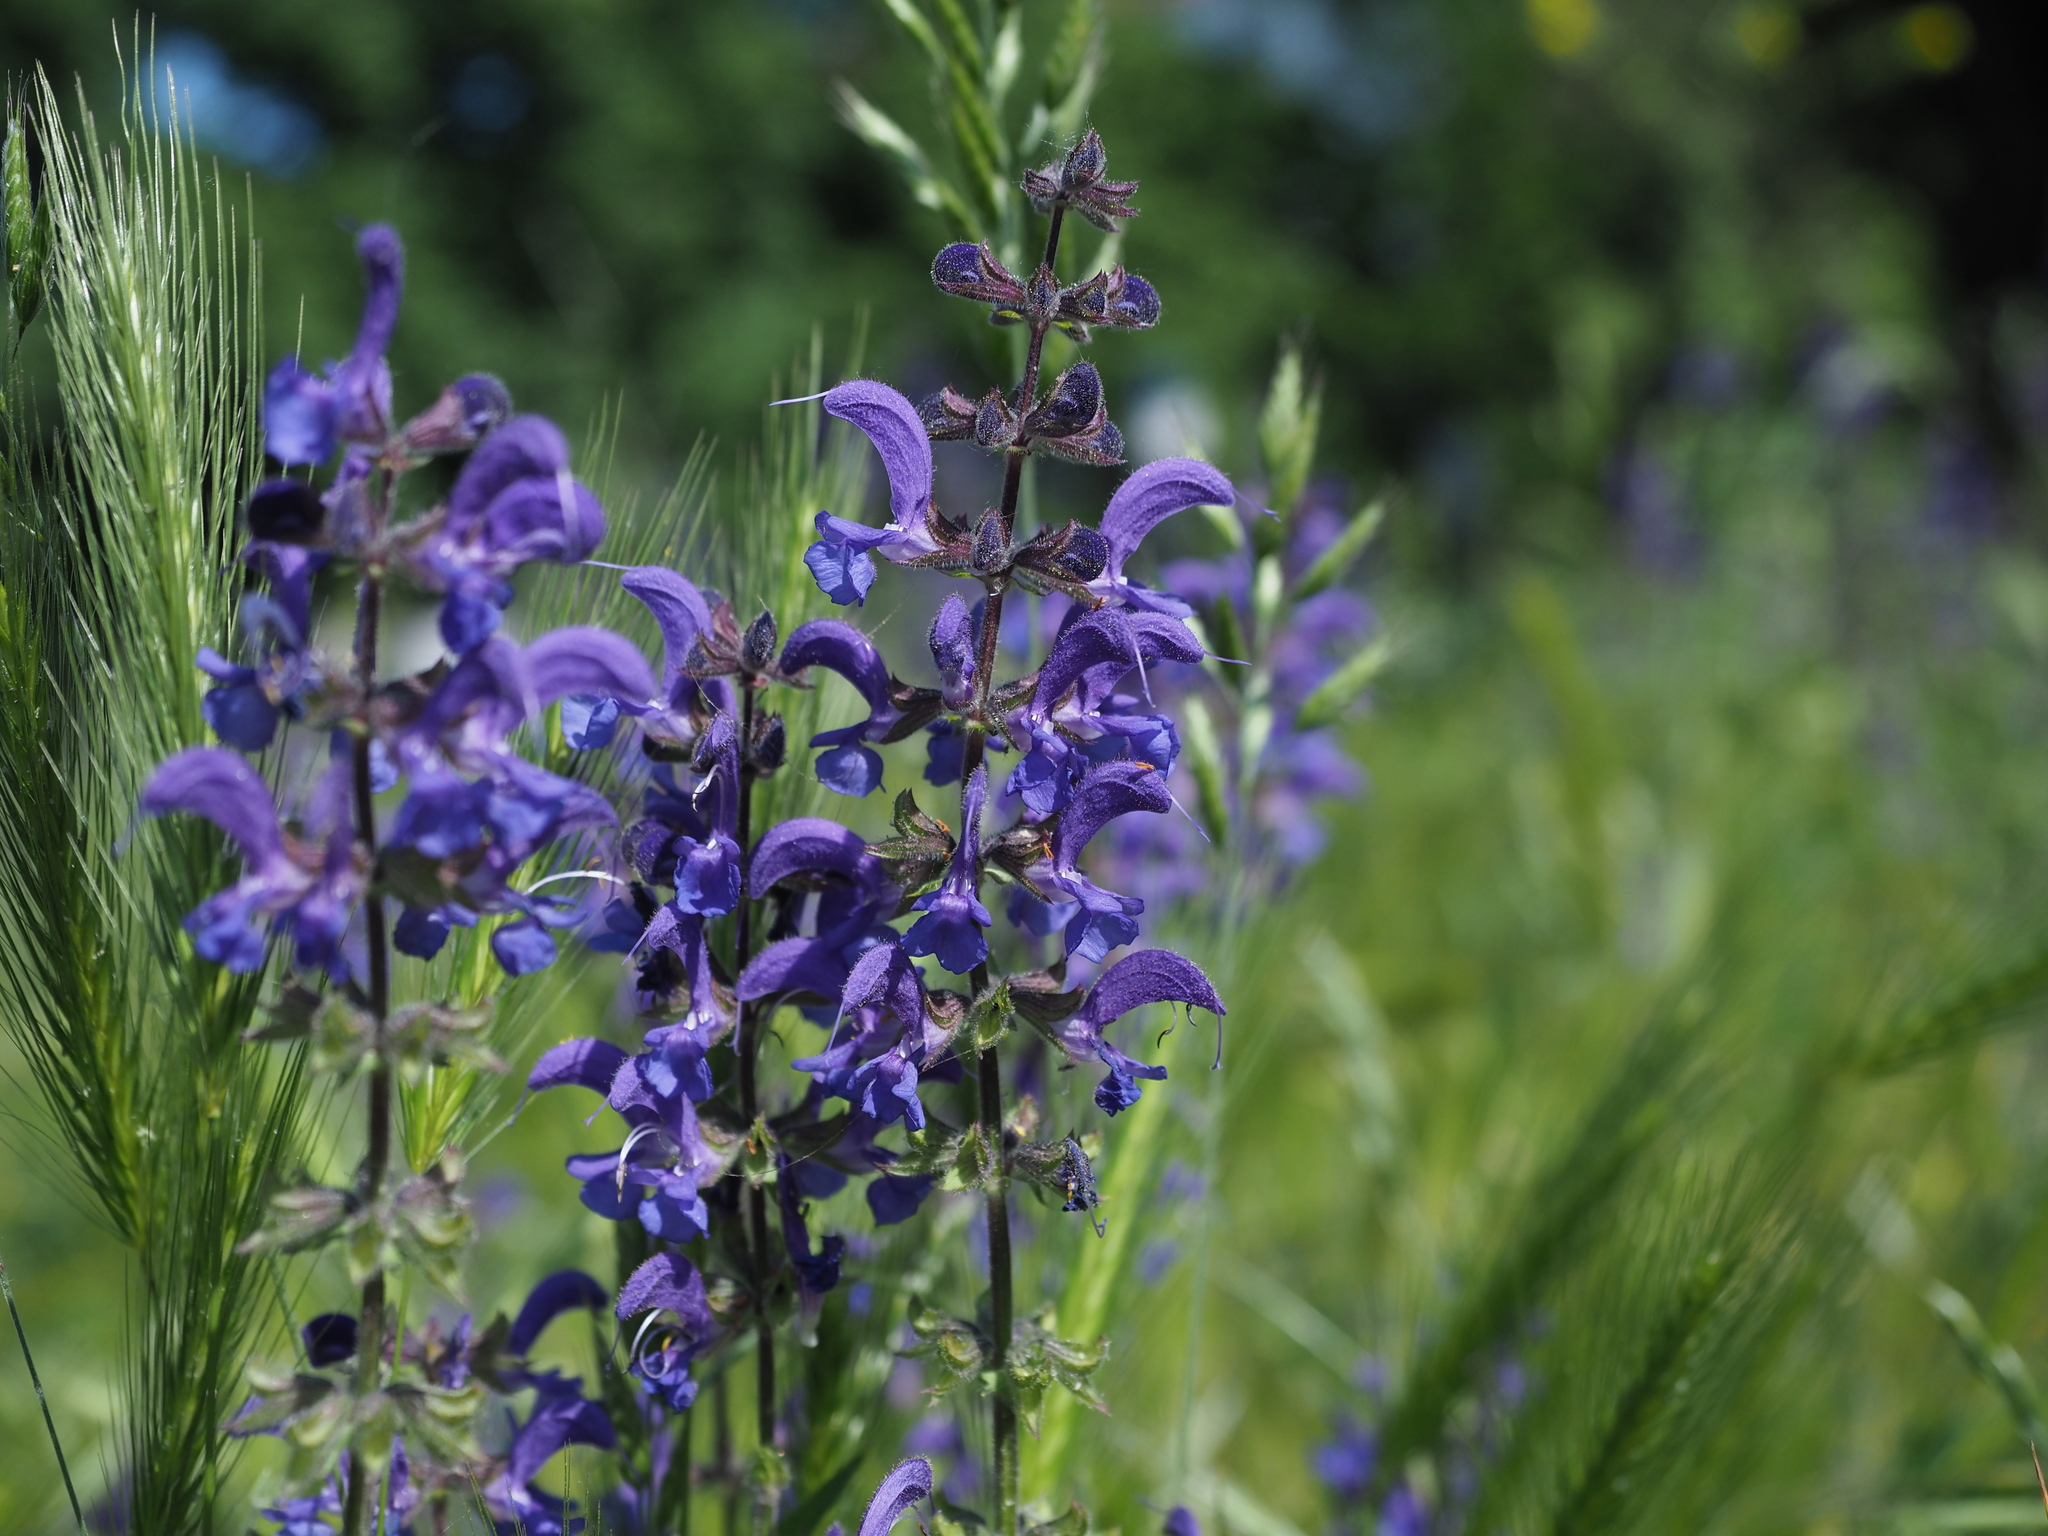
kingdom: Plantae
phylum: Tracheophyta
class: Magnoliopsida
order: Lamiales
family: Lamiaceae
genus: Salvia
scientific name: Salvia pratensis
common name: Meadow sage
